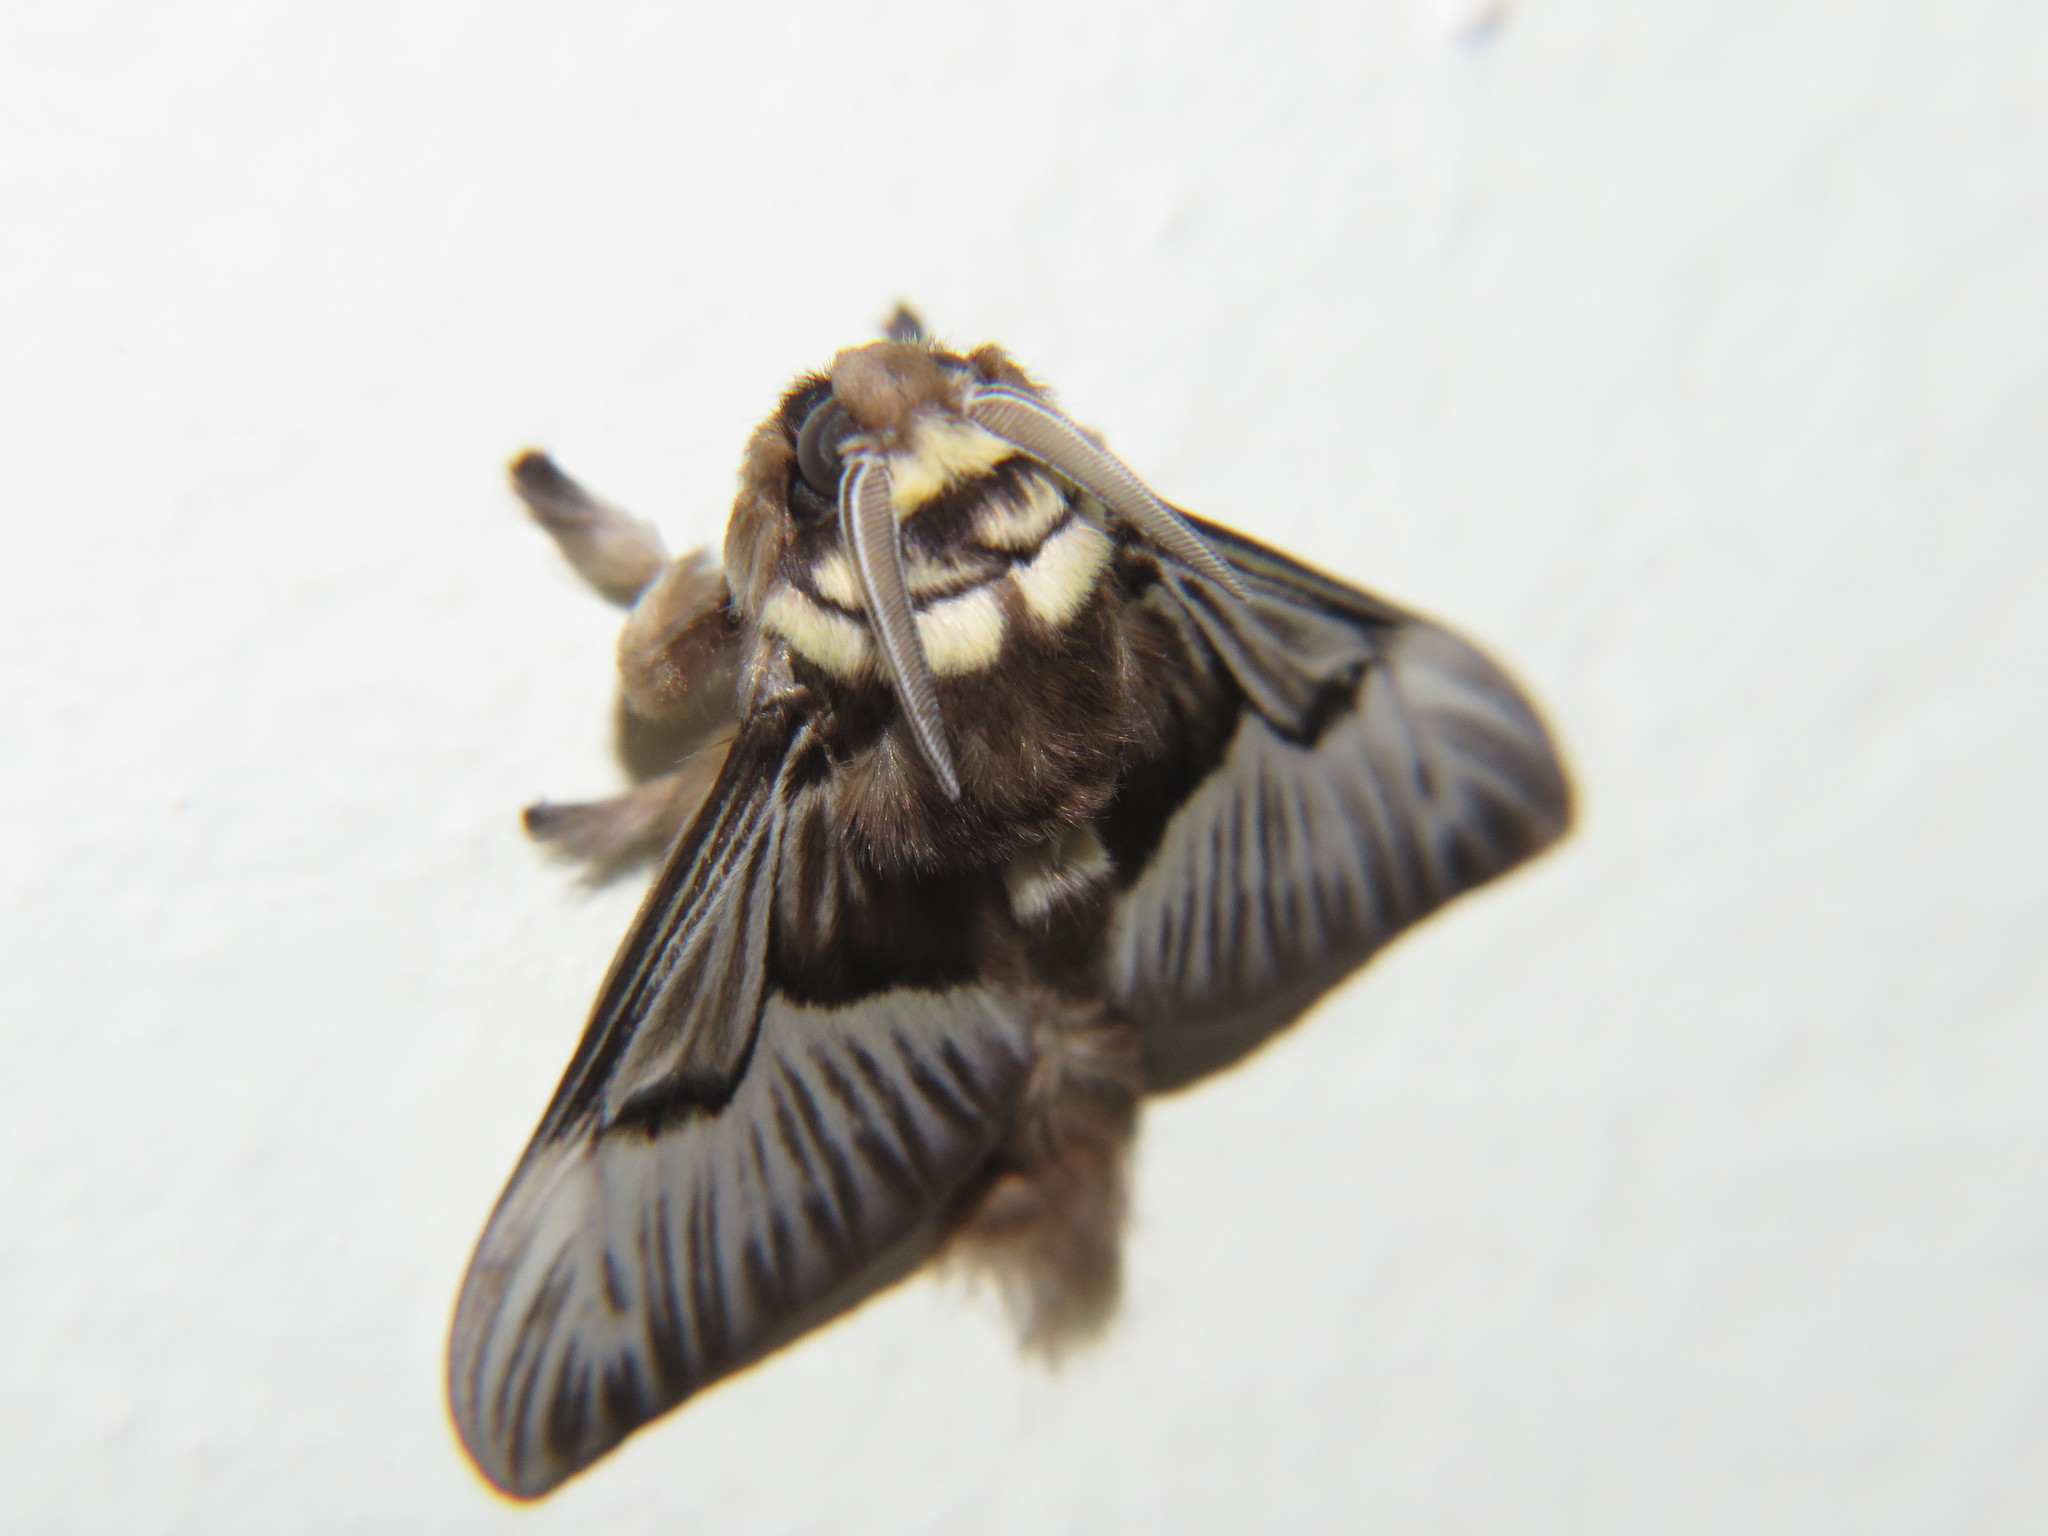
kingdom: Animalia
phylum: Arthropoda
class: Insecta
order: Lepidoptera
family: Megalopygidae
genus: Megalopyge
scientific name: Megalopyge tharops
